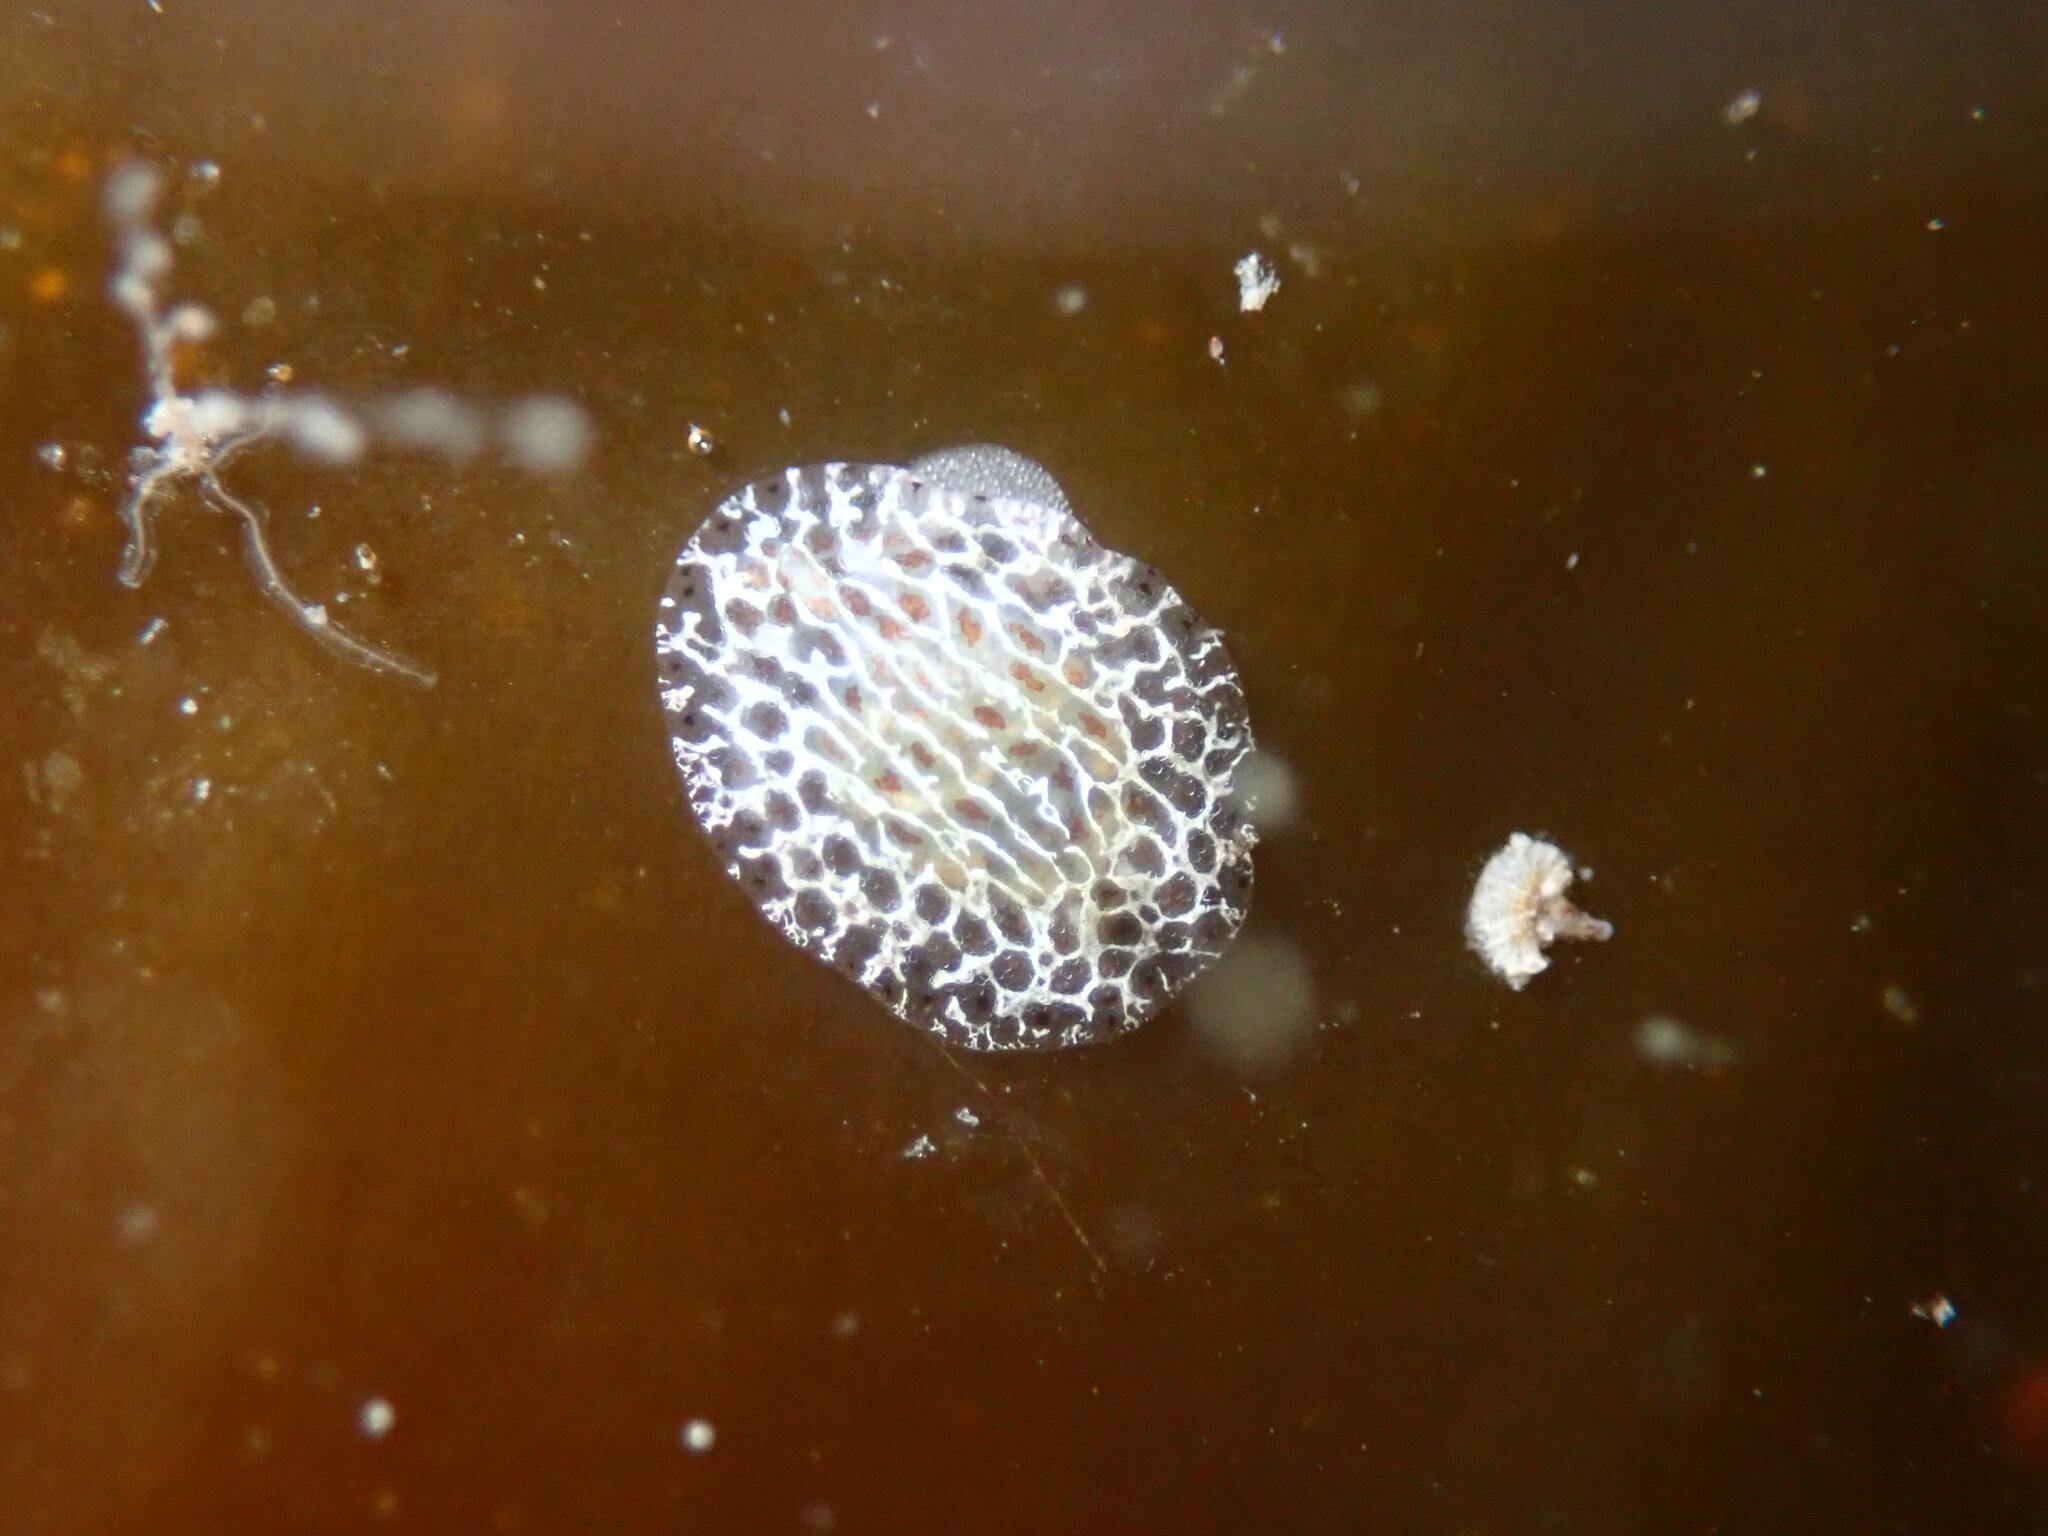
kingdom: Animalia
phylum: Mollusca
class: Gastropoda
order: Nudibranchia
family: Corambidae
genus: Corambe
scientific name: Corambe steinbergae
